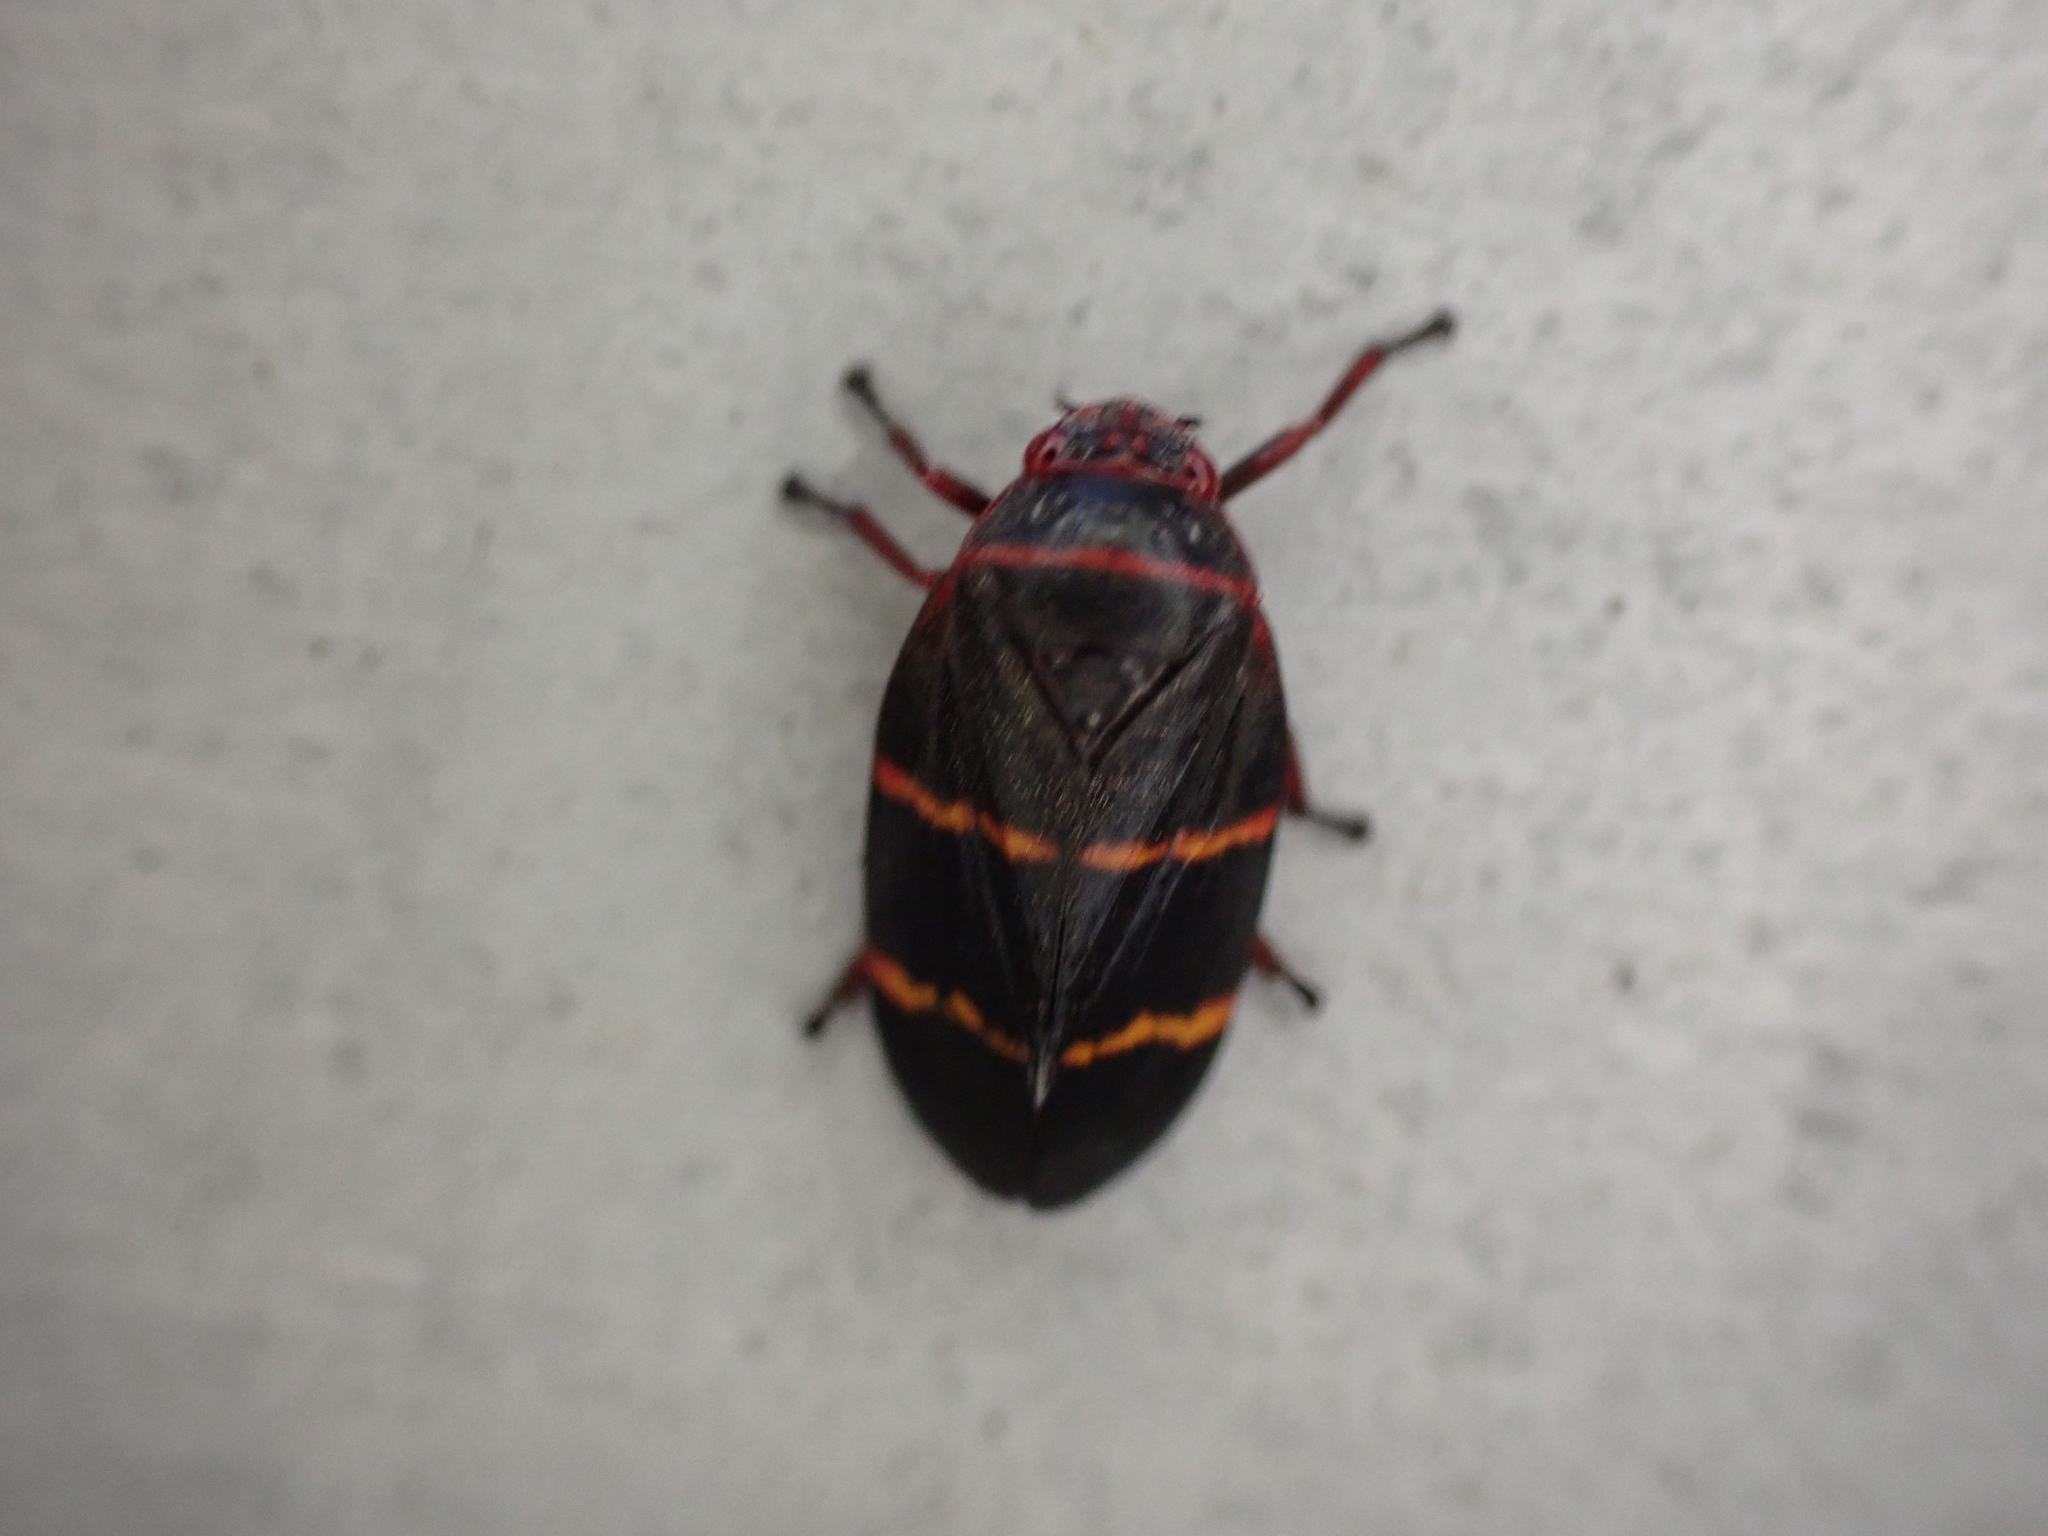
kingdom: Animalia
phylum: Arthropoda
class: Insecta
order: Hemiptera
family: Cercopidae
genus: Prosapia
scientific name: Prosapia bicincta
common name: Twolined spittlebug
